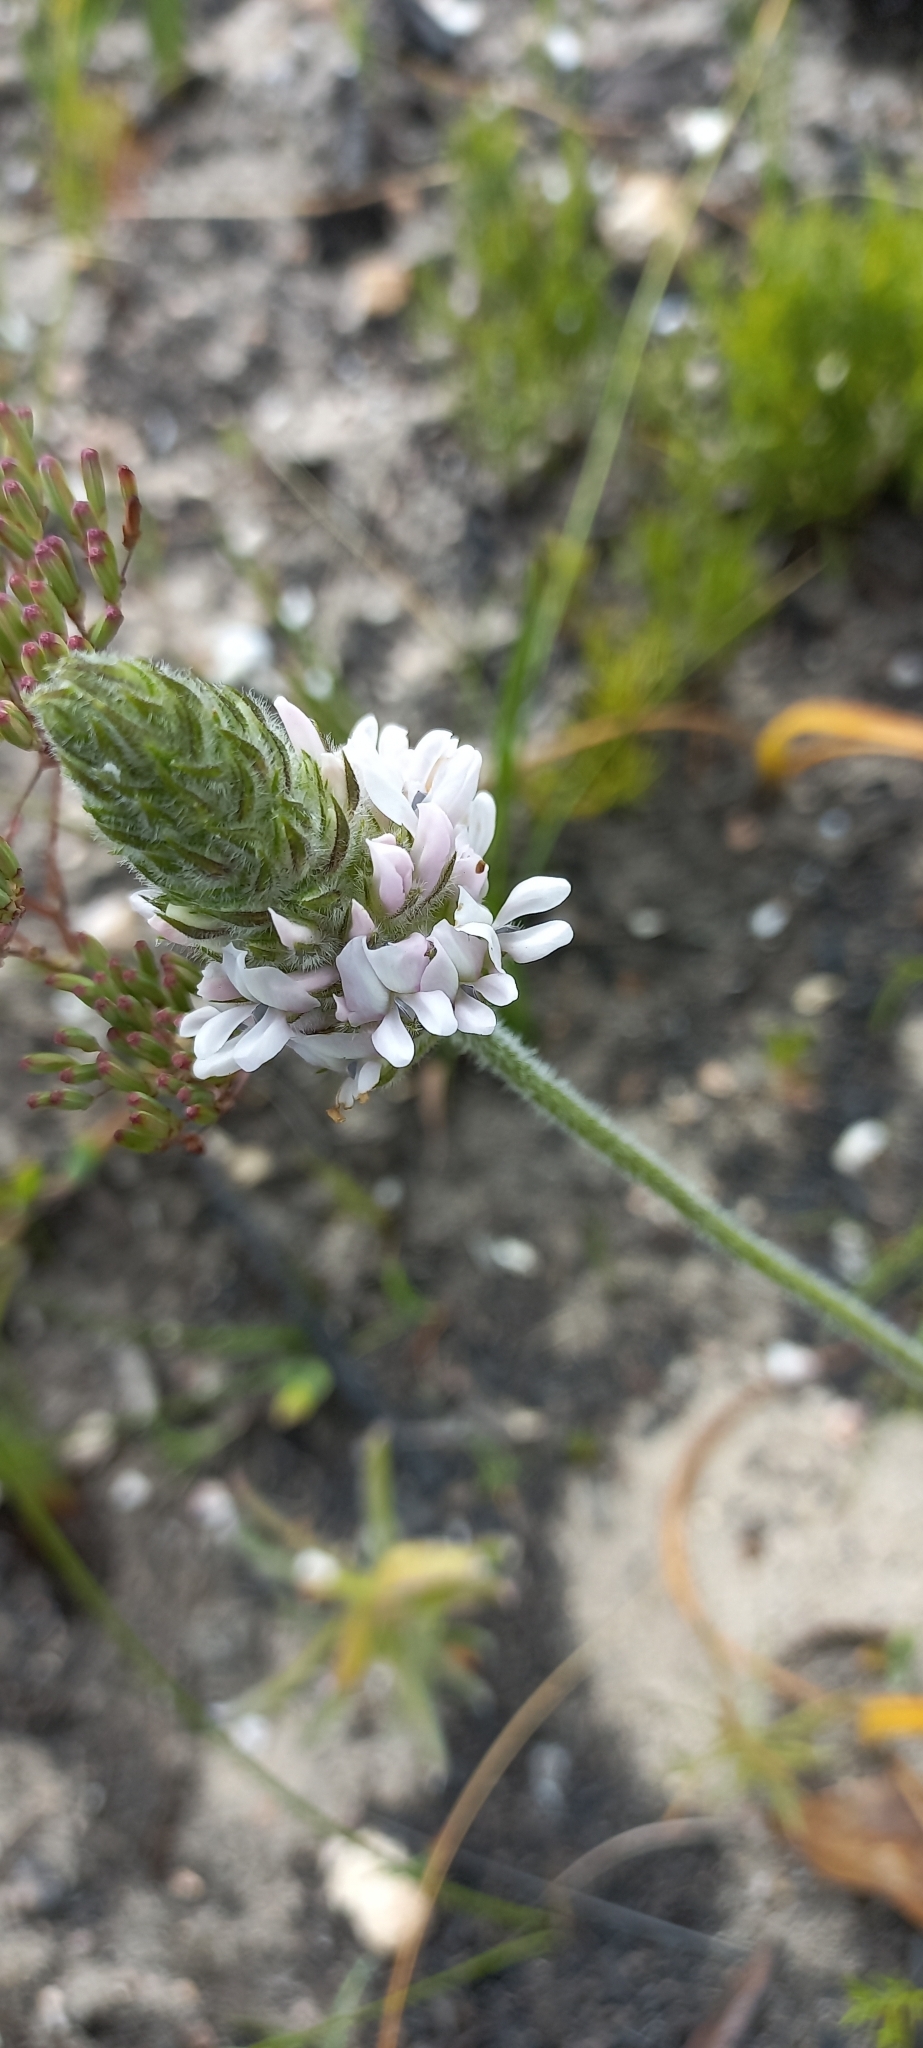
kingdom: Plantae
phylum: Tracheophyta
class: Magnoliopsida
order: Fabales
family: Fabaceae
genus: Psoralea
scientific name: Psoralea zeyheri
